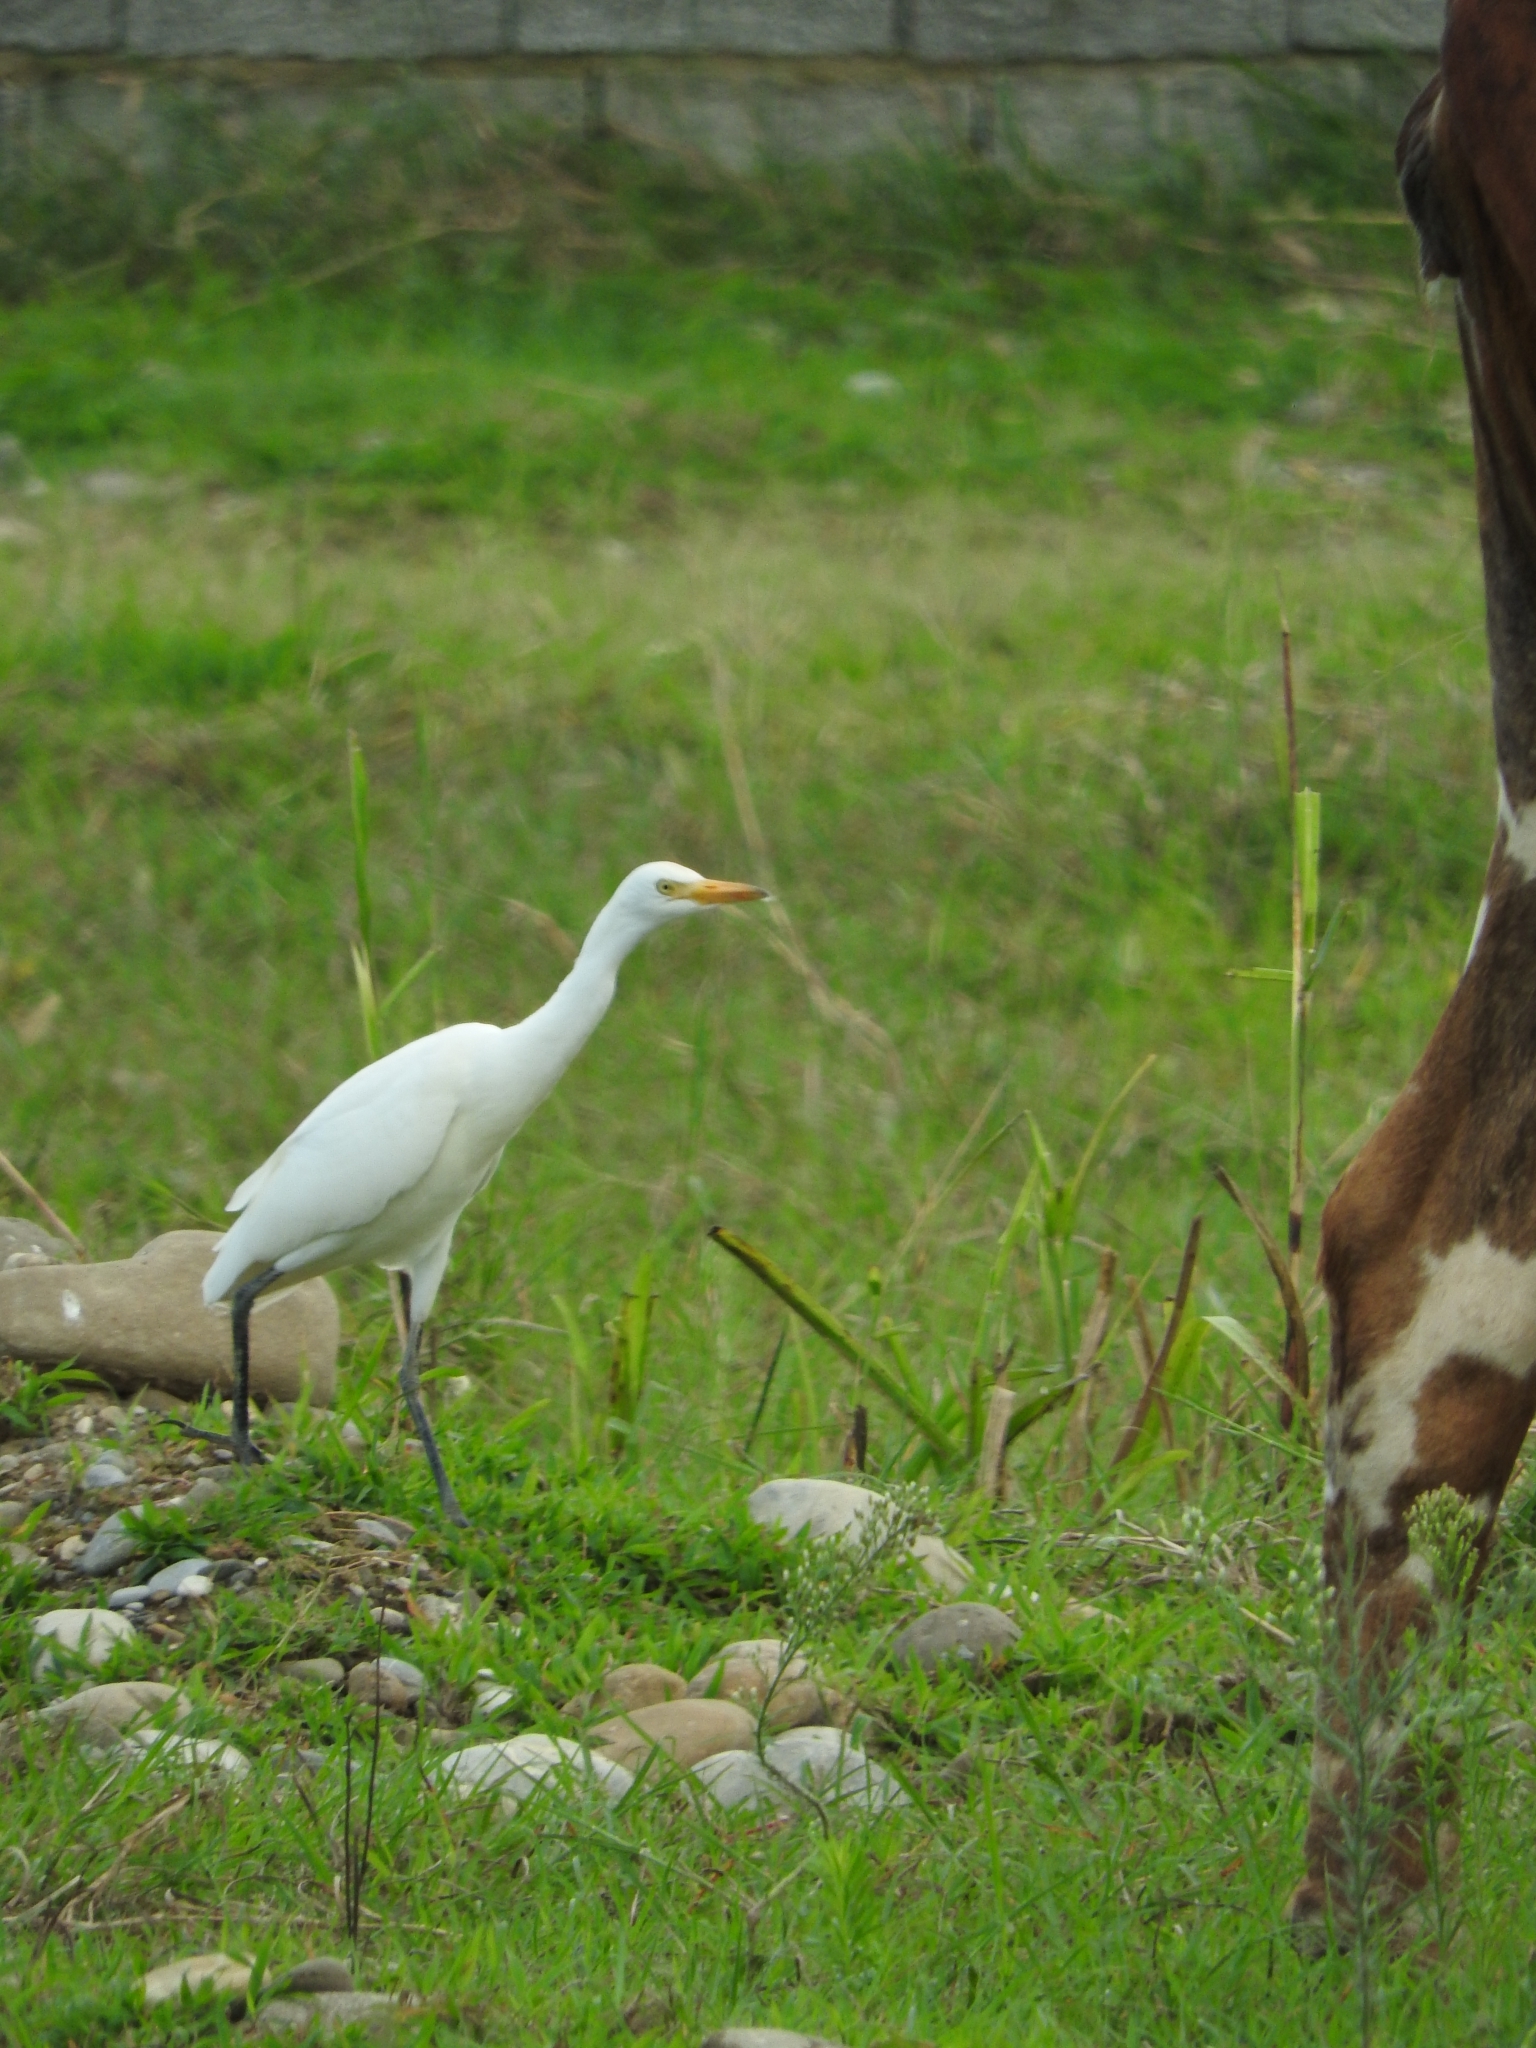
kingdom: Animalia
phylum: Chordata
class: Aves
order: Pelecaniformes
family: Ardeidae
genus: Bubulcus
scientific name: Bubulcus ibis
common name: Cattle egret
